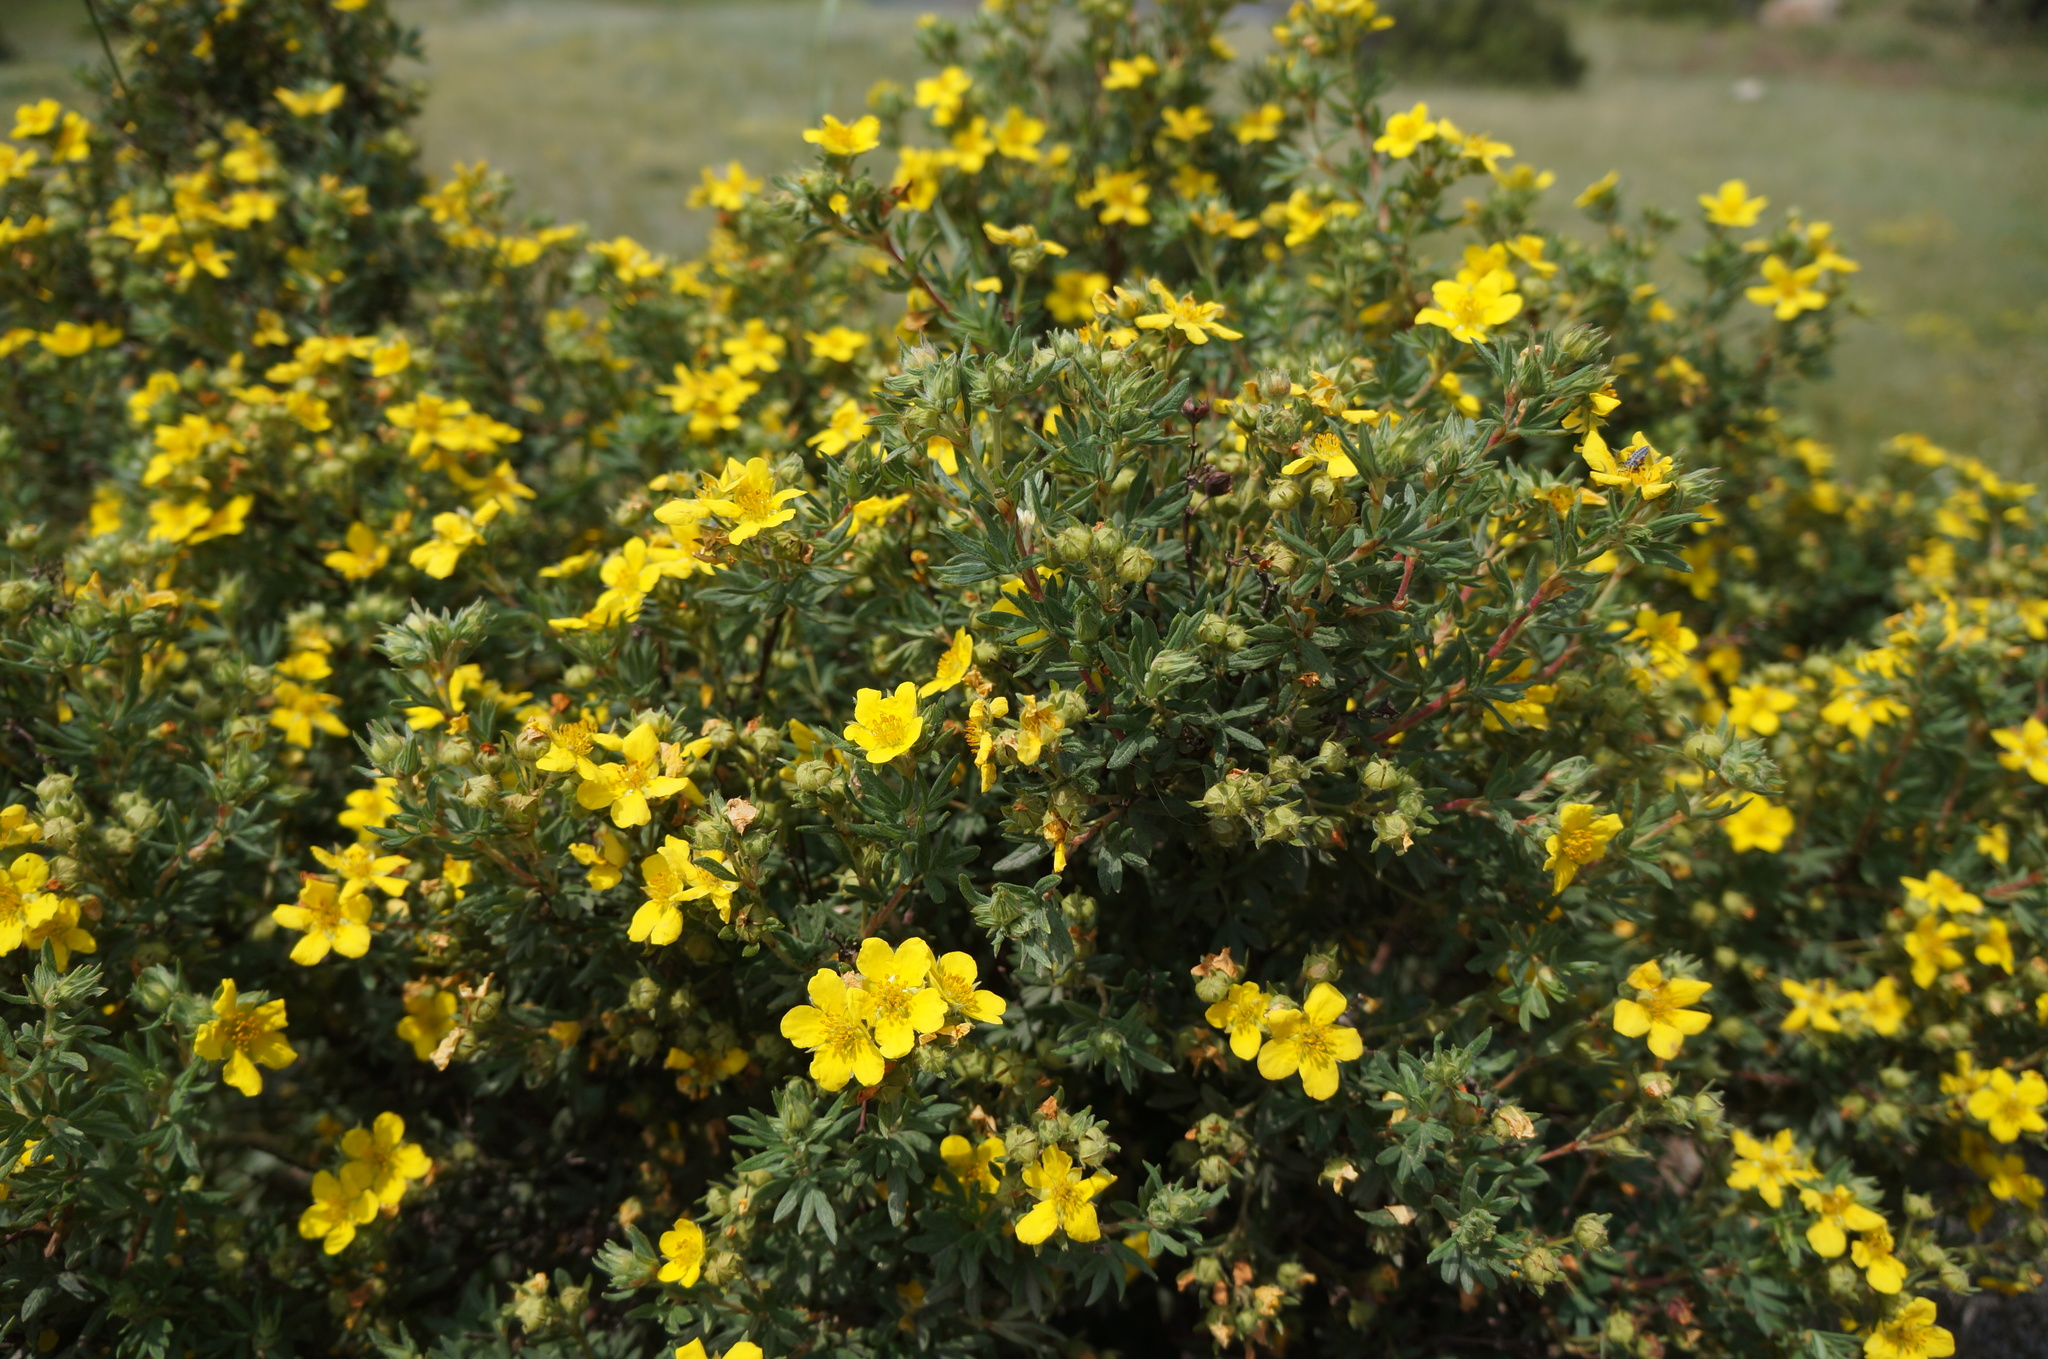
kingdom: Plantae
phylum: Tracheophyta
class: Magnoliopsida
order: Rosales
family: Rosaceae
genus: Dasiphora
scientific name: Dasiphora fruticosa
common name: Shrubby cinquefoil
